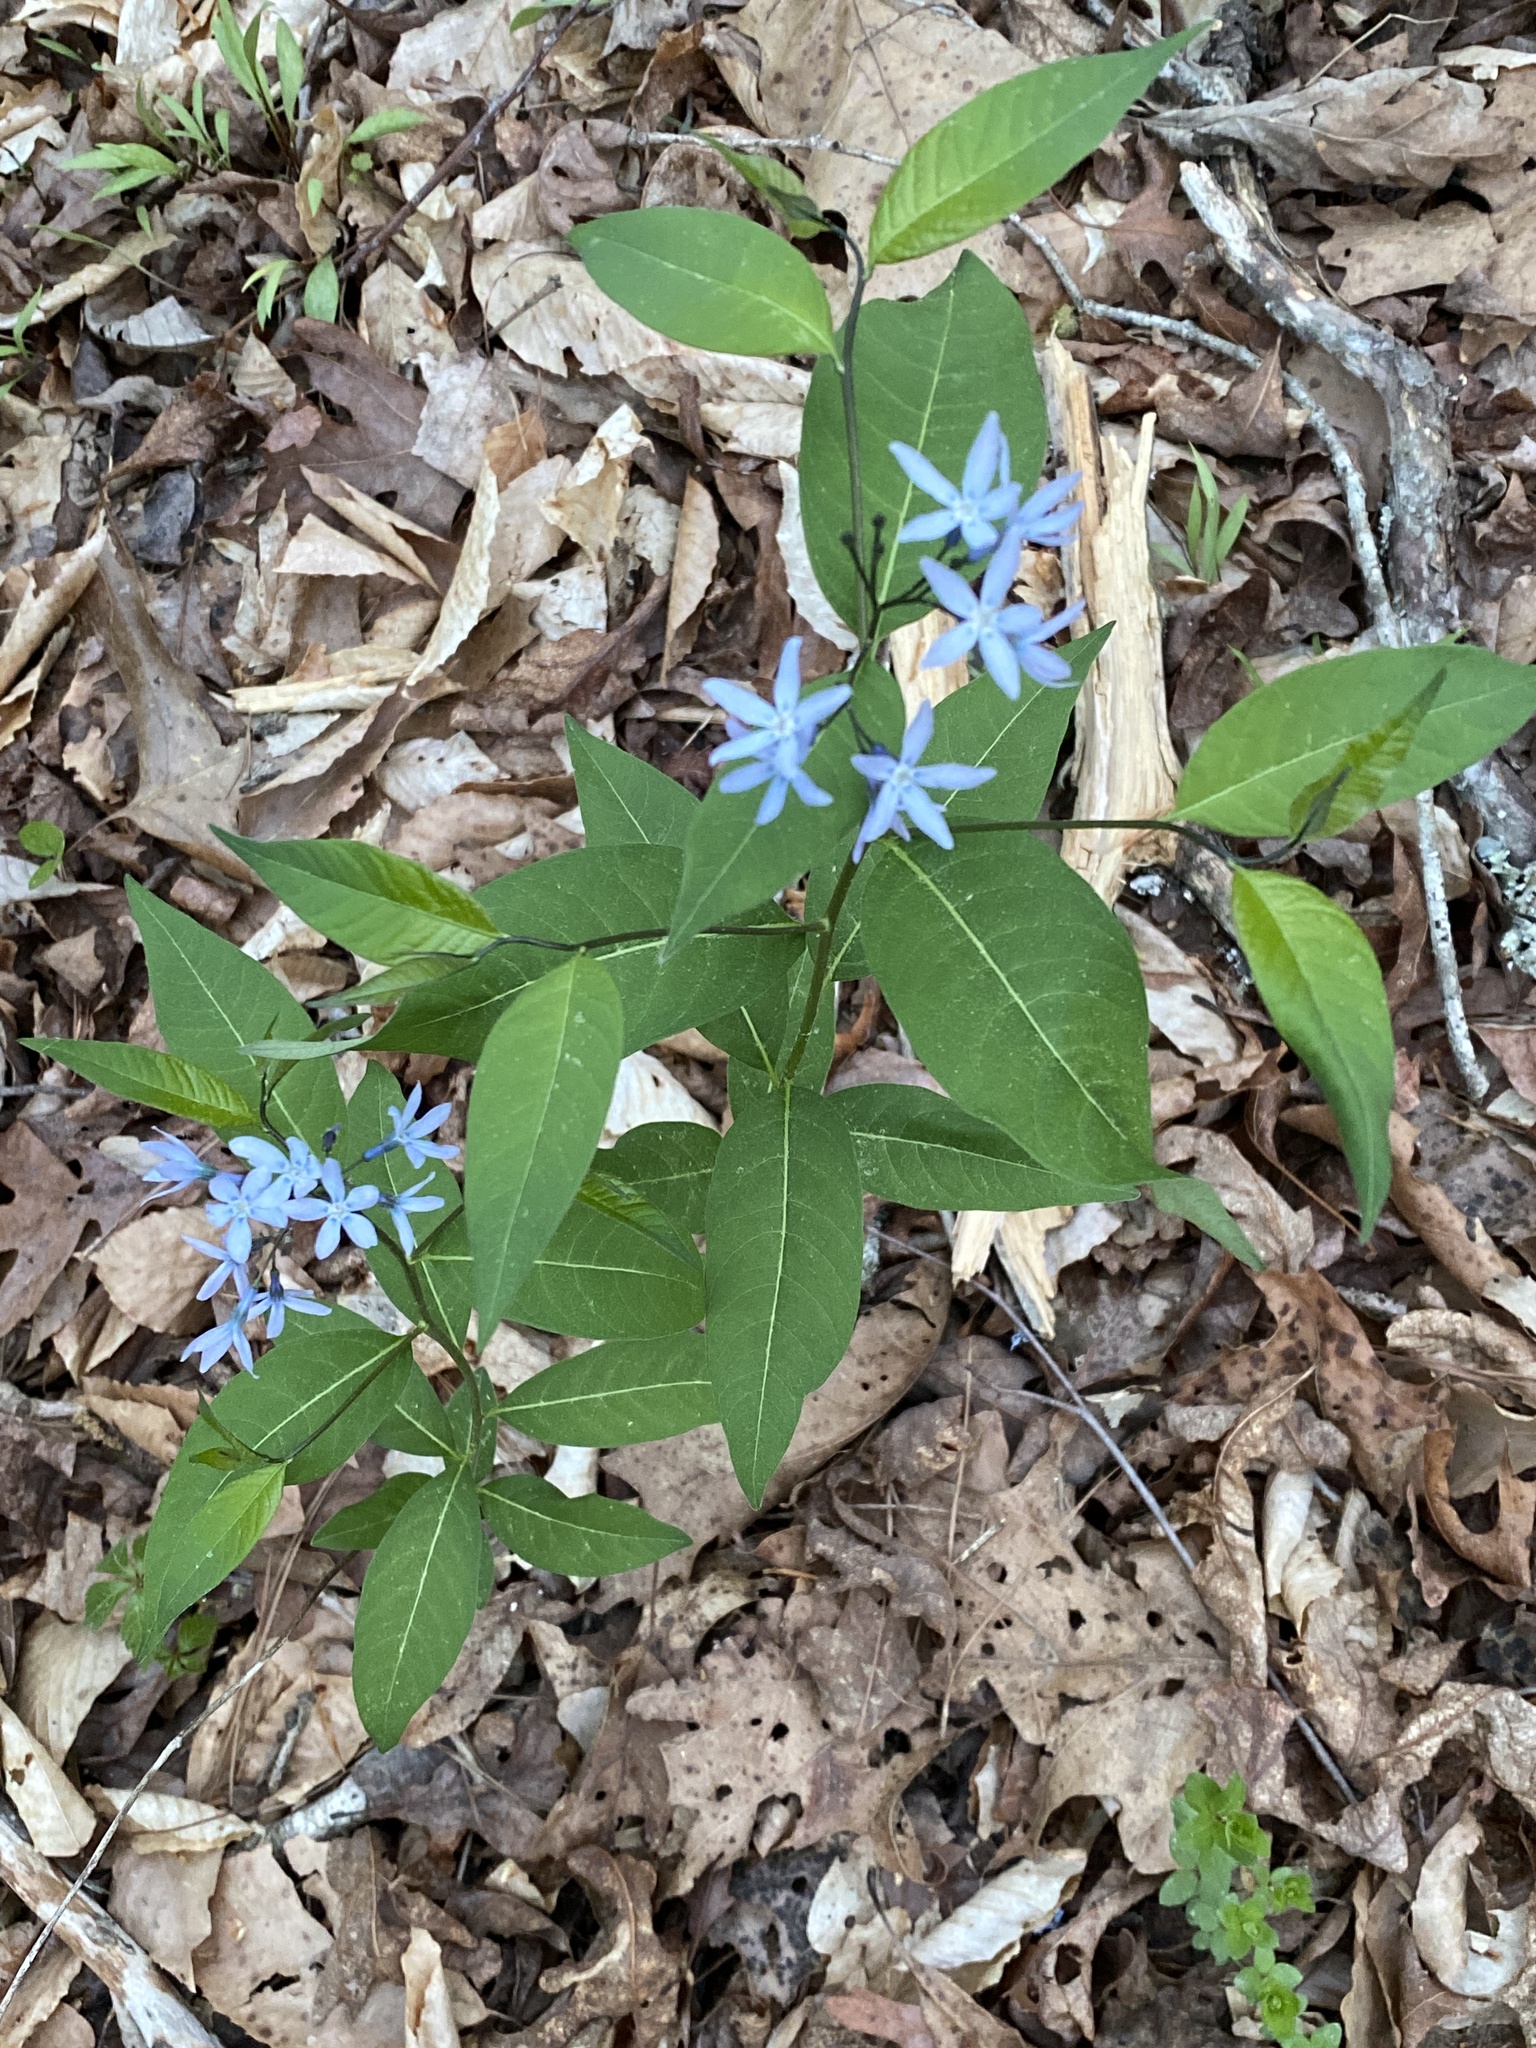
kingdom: Plantae
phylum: Tracheophyta
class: Magnoliopsida
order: Gentianales
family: Apocynaceae
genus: Amsonia
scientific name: Amsonia tabernaemontana
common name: Texas-star
